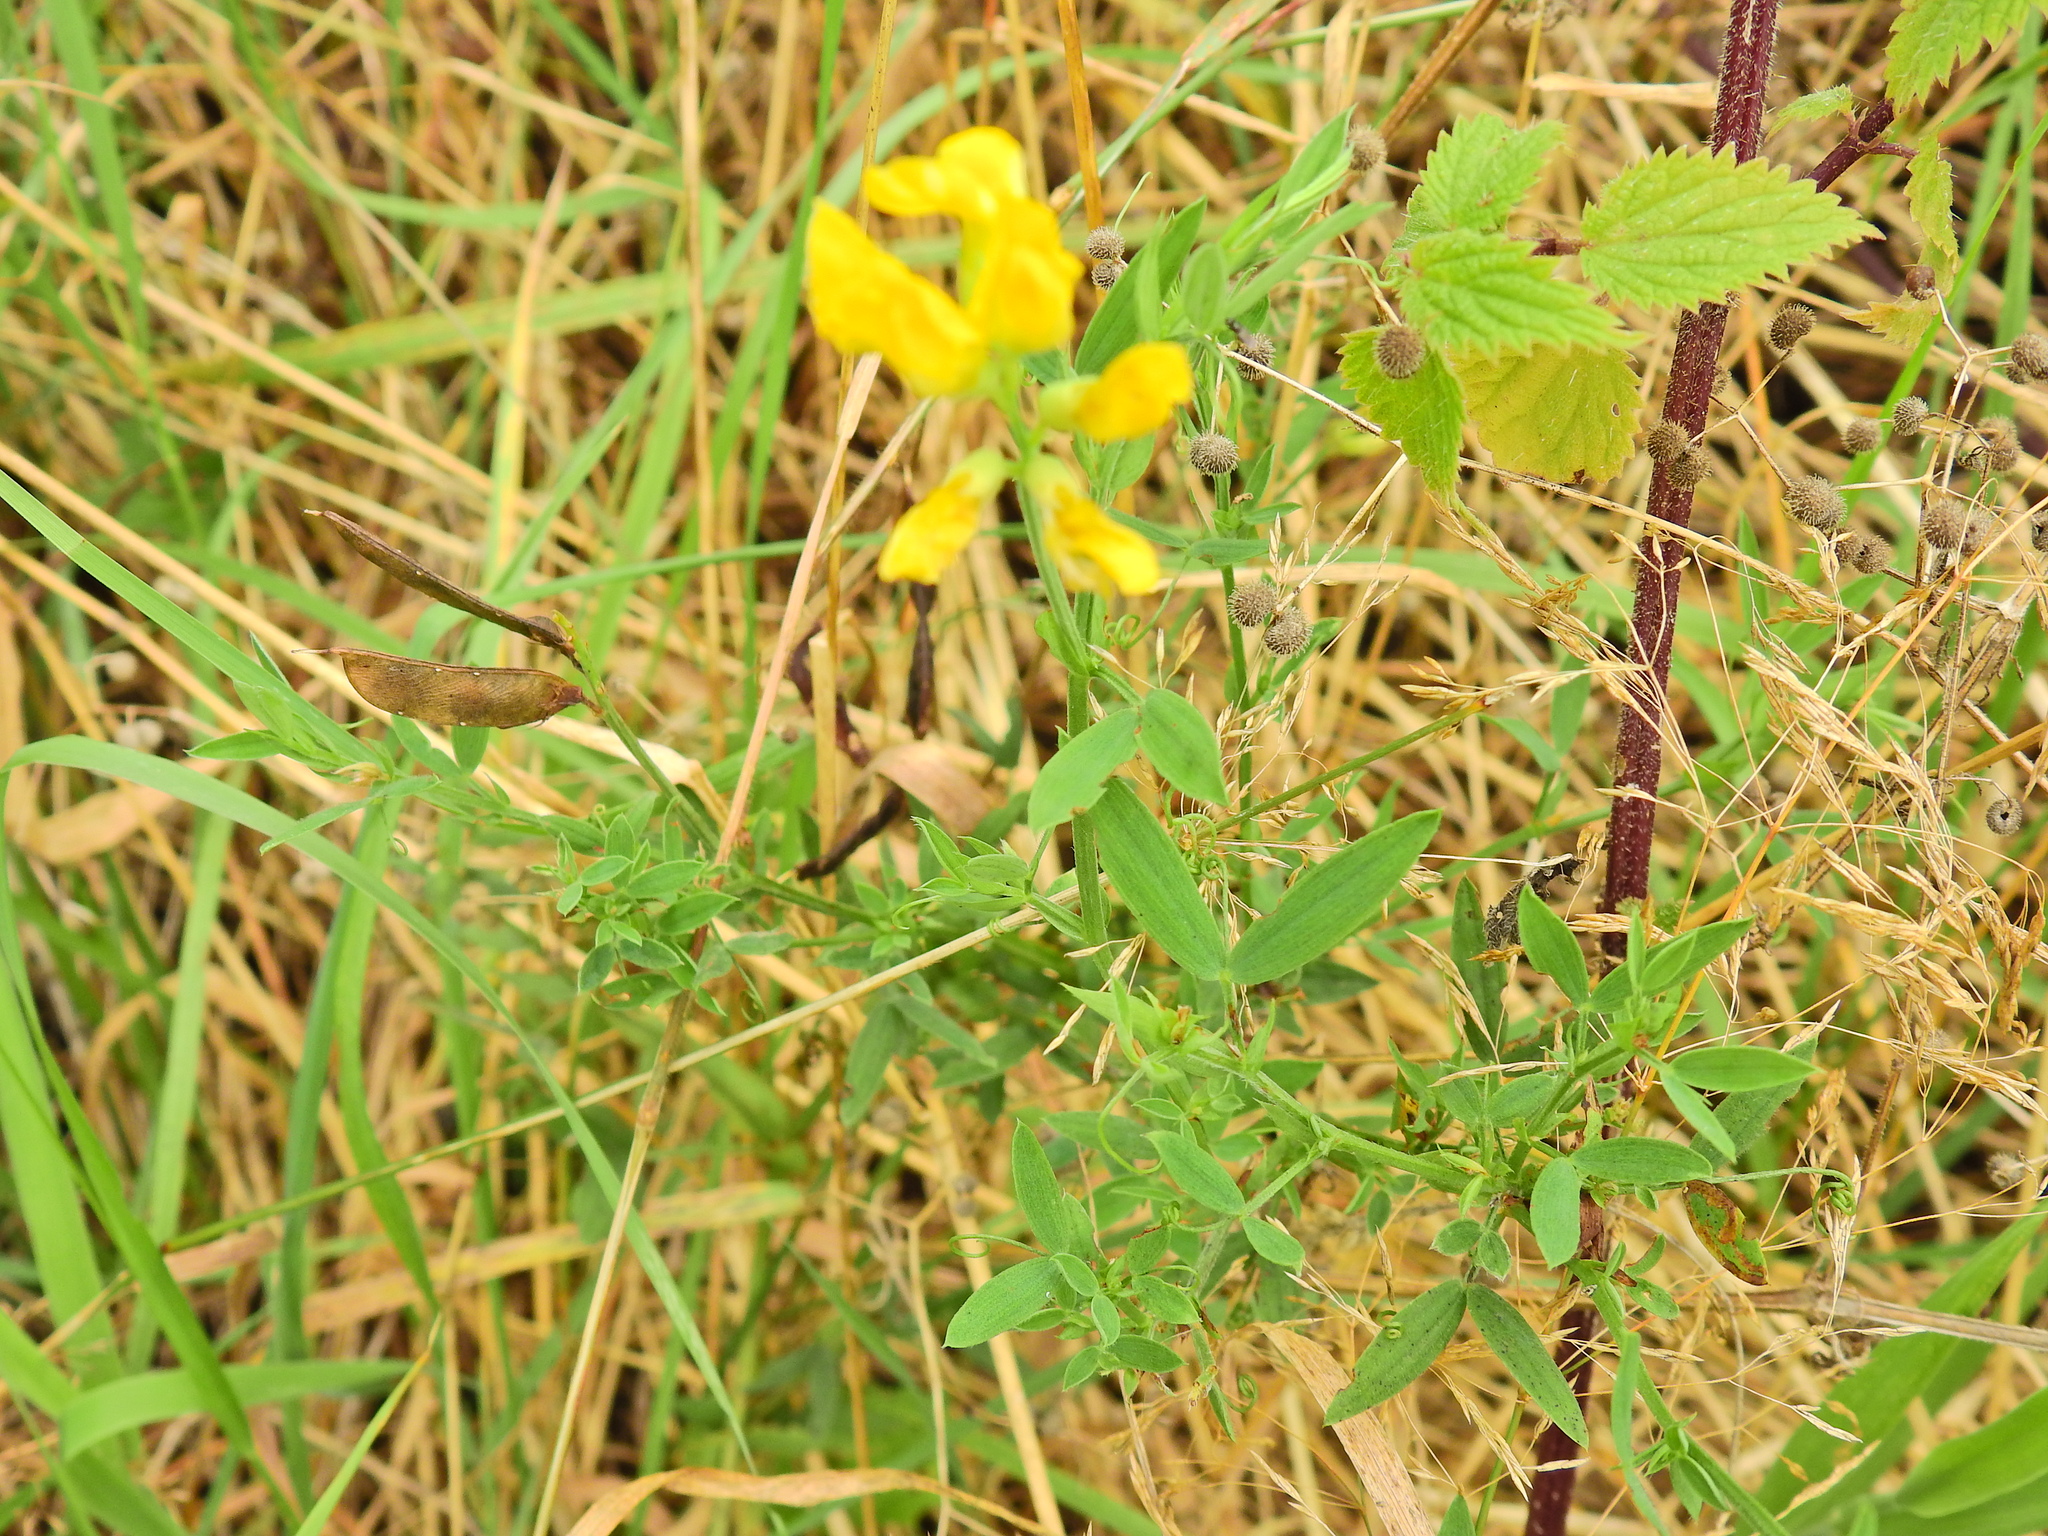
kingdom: Plantae
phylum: Tracheophyta
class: Magnoliopsida
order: Fabales
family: Fabaceae
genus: Lathyrus
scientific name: Lathyrus pratensis
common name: Meadow vetchling
